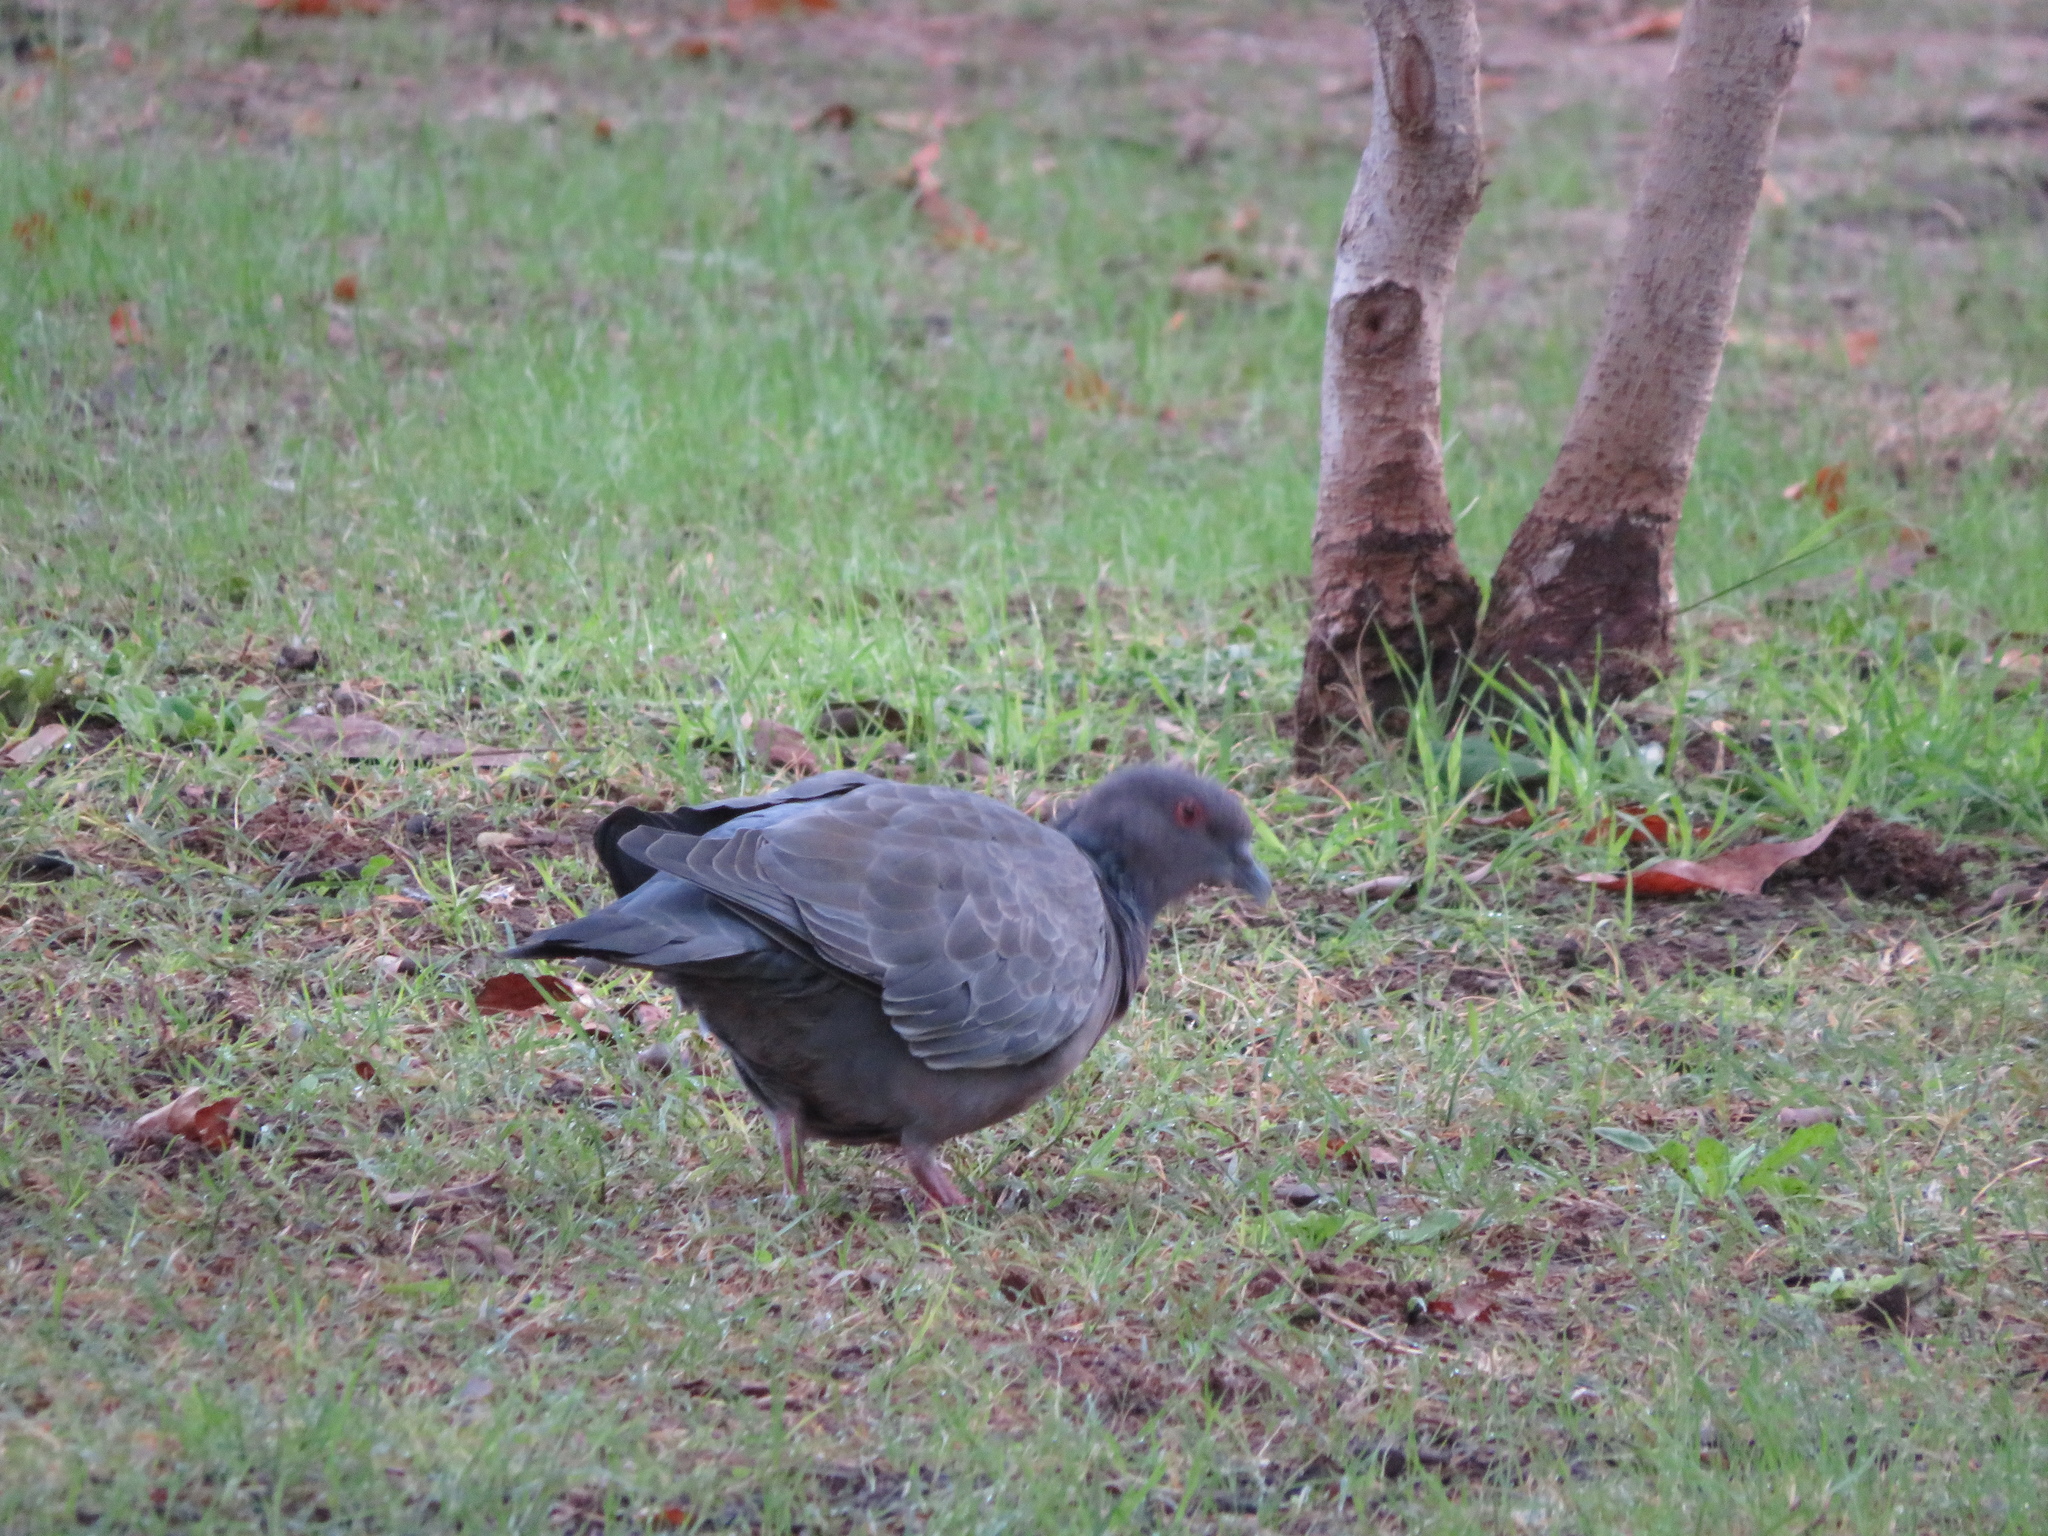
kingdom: Animalia
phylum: Chordata
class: Aves
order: Columbiformes
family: Columbidae
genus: Patagioenas
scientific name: Patagioenas picazuro
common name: Picazuro pigeon
